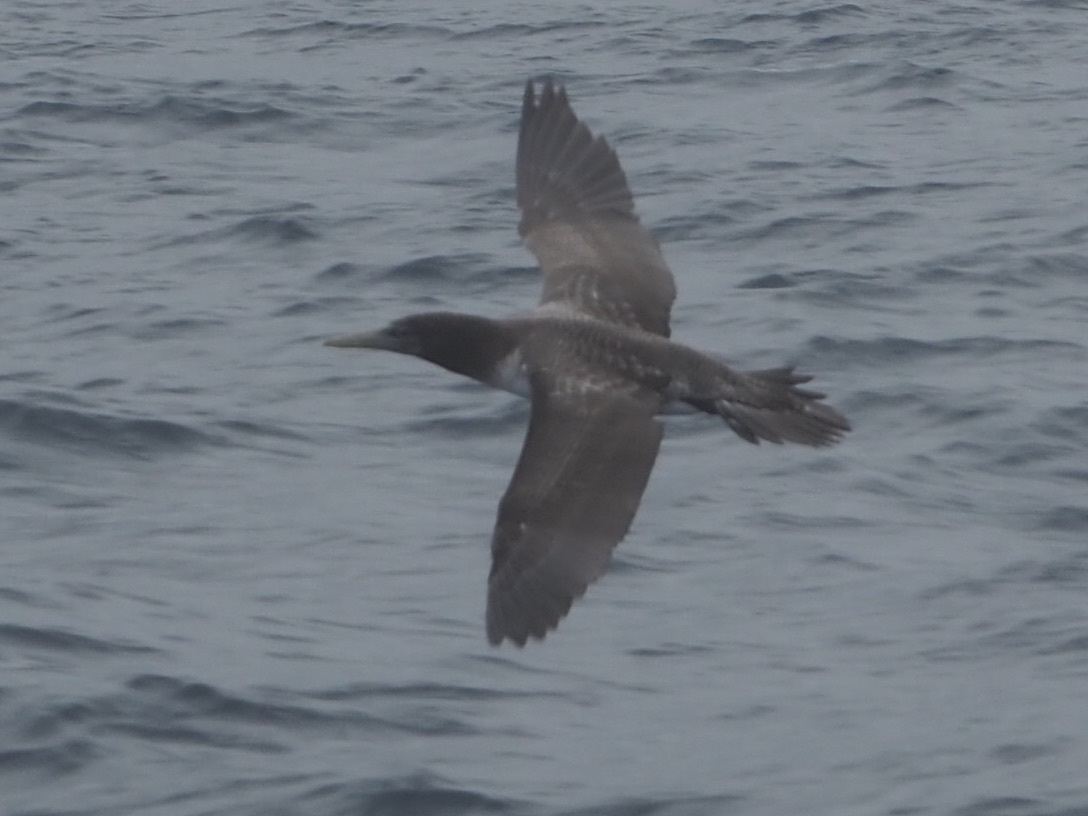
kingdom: Animalia
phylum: Chordata
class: Aves
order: Suliformes
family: Sulidae
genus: Sula
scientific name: Sula granti
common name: Nazca booby
